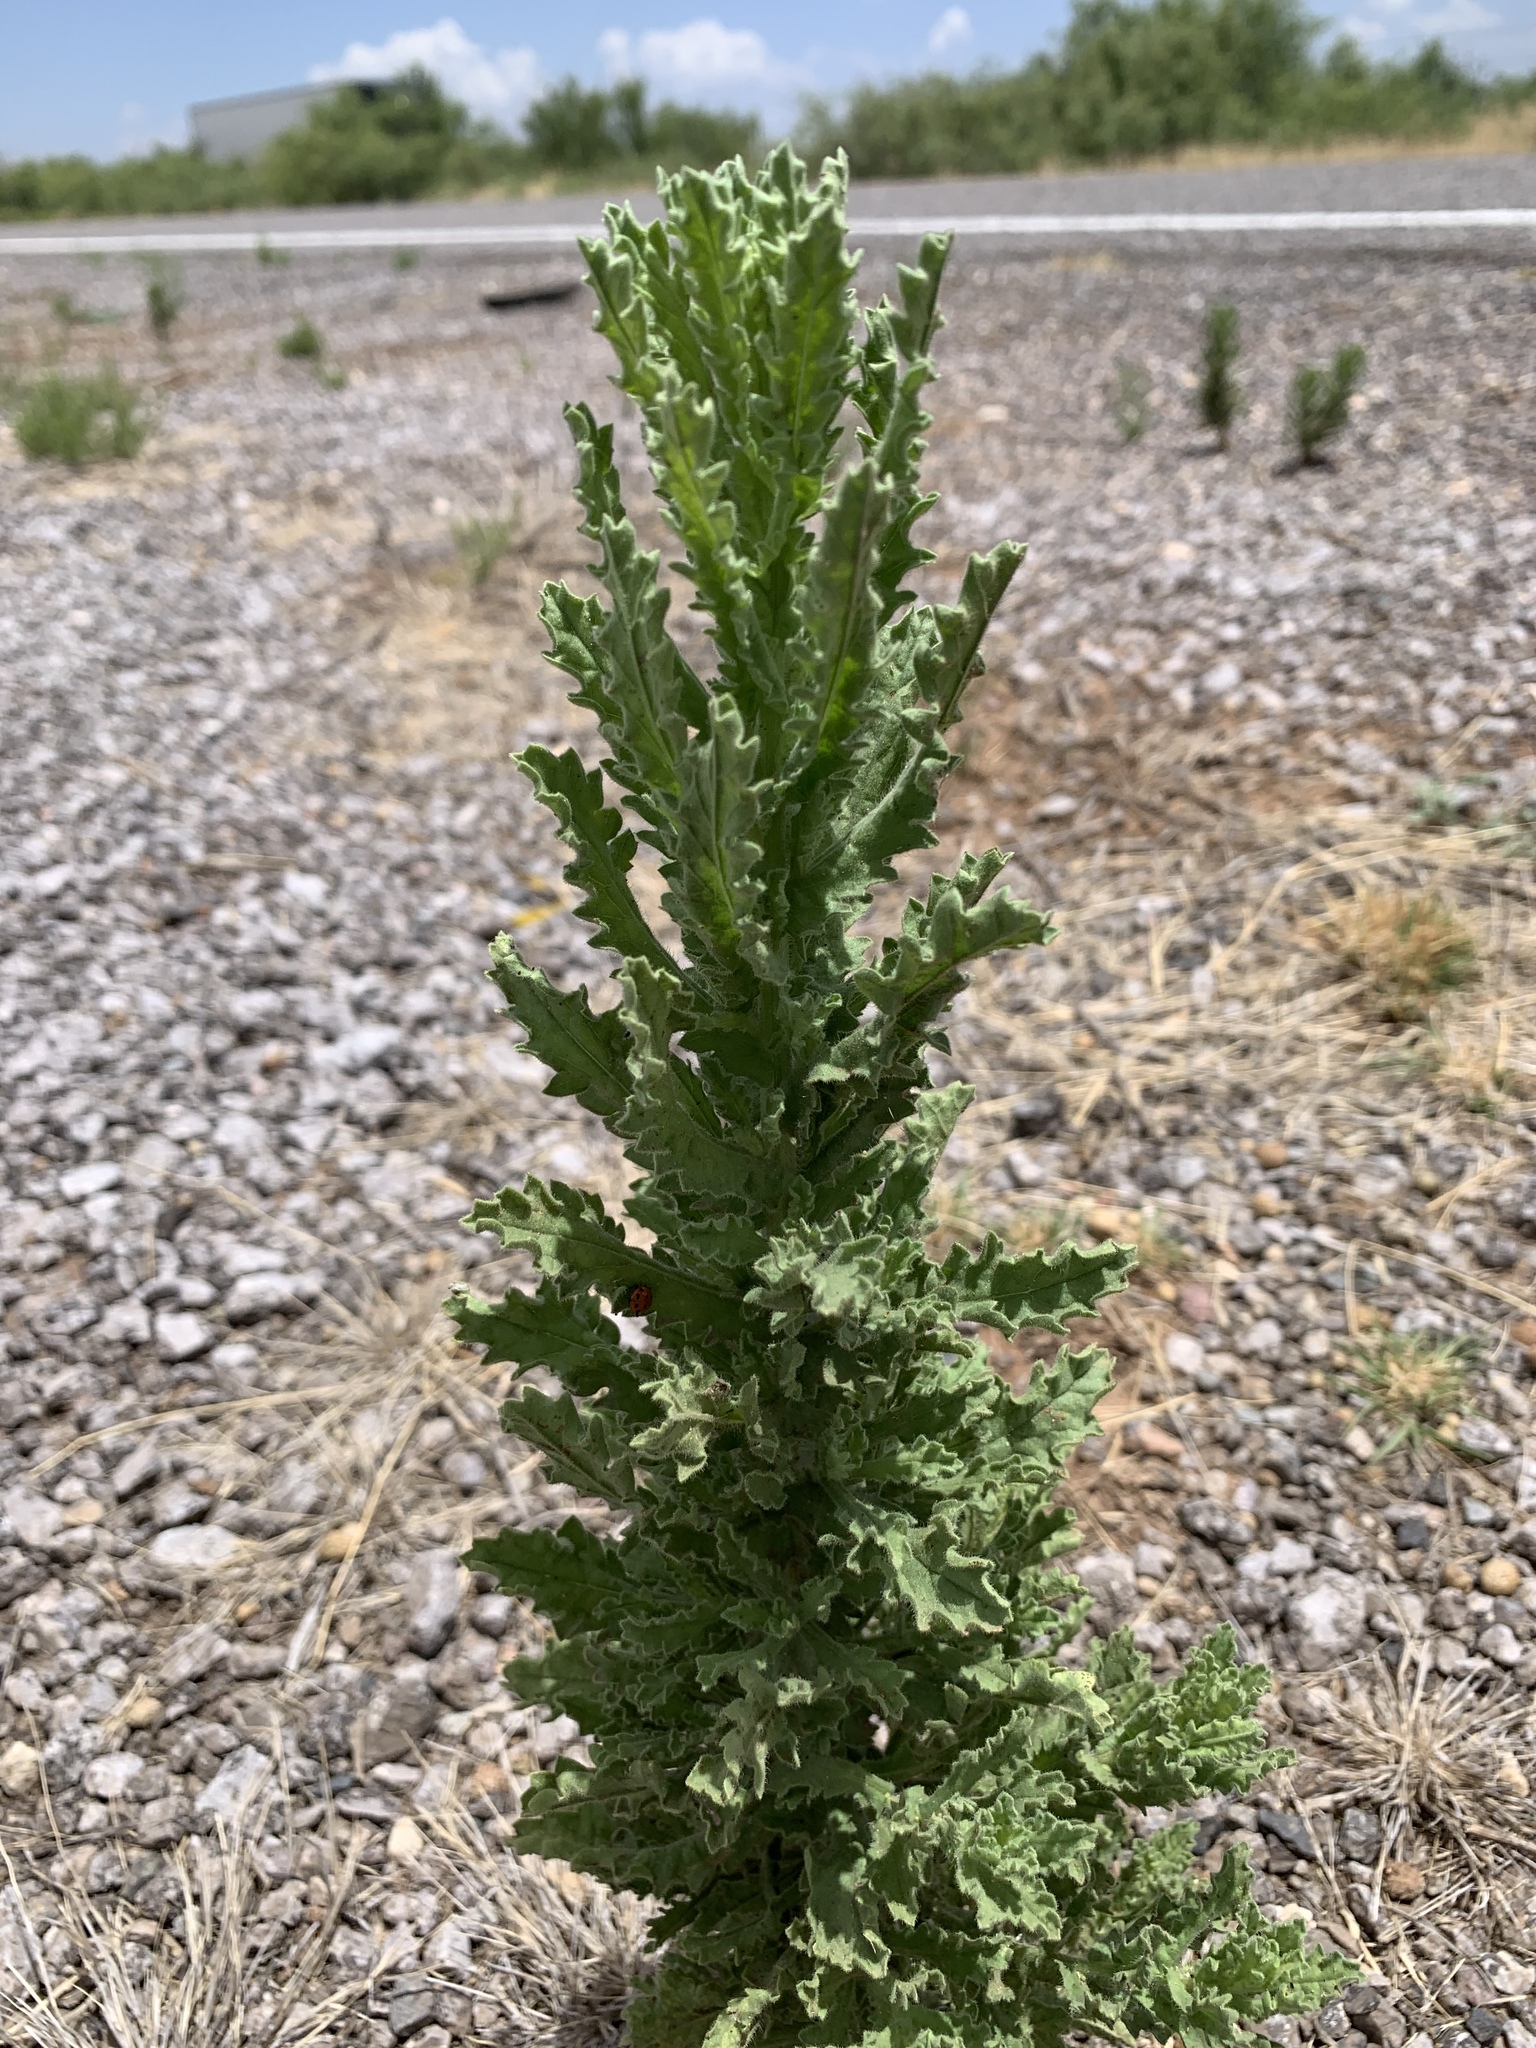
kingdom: Plantae
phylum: Tracheophyta
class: Magnoliopsida
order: Asterales
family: Asteraceae
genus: Laennecia
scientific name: Laennecia coulteri
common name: Coulter's woolwort
